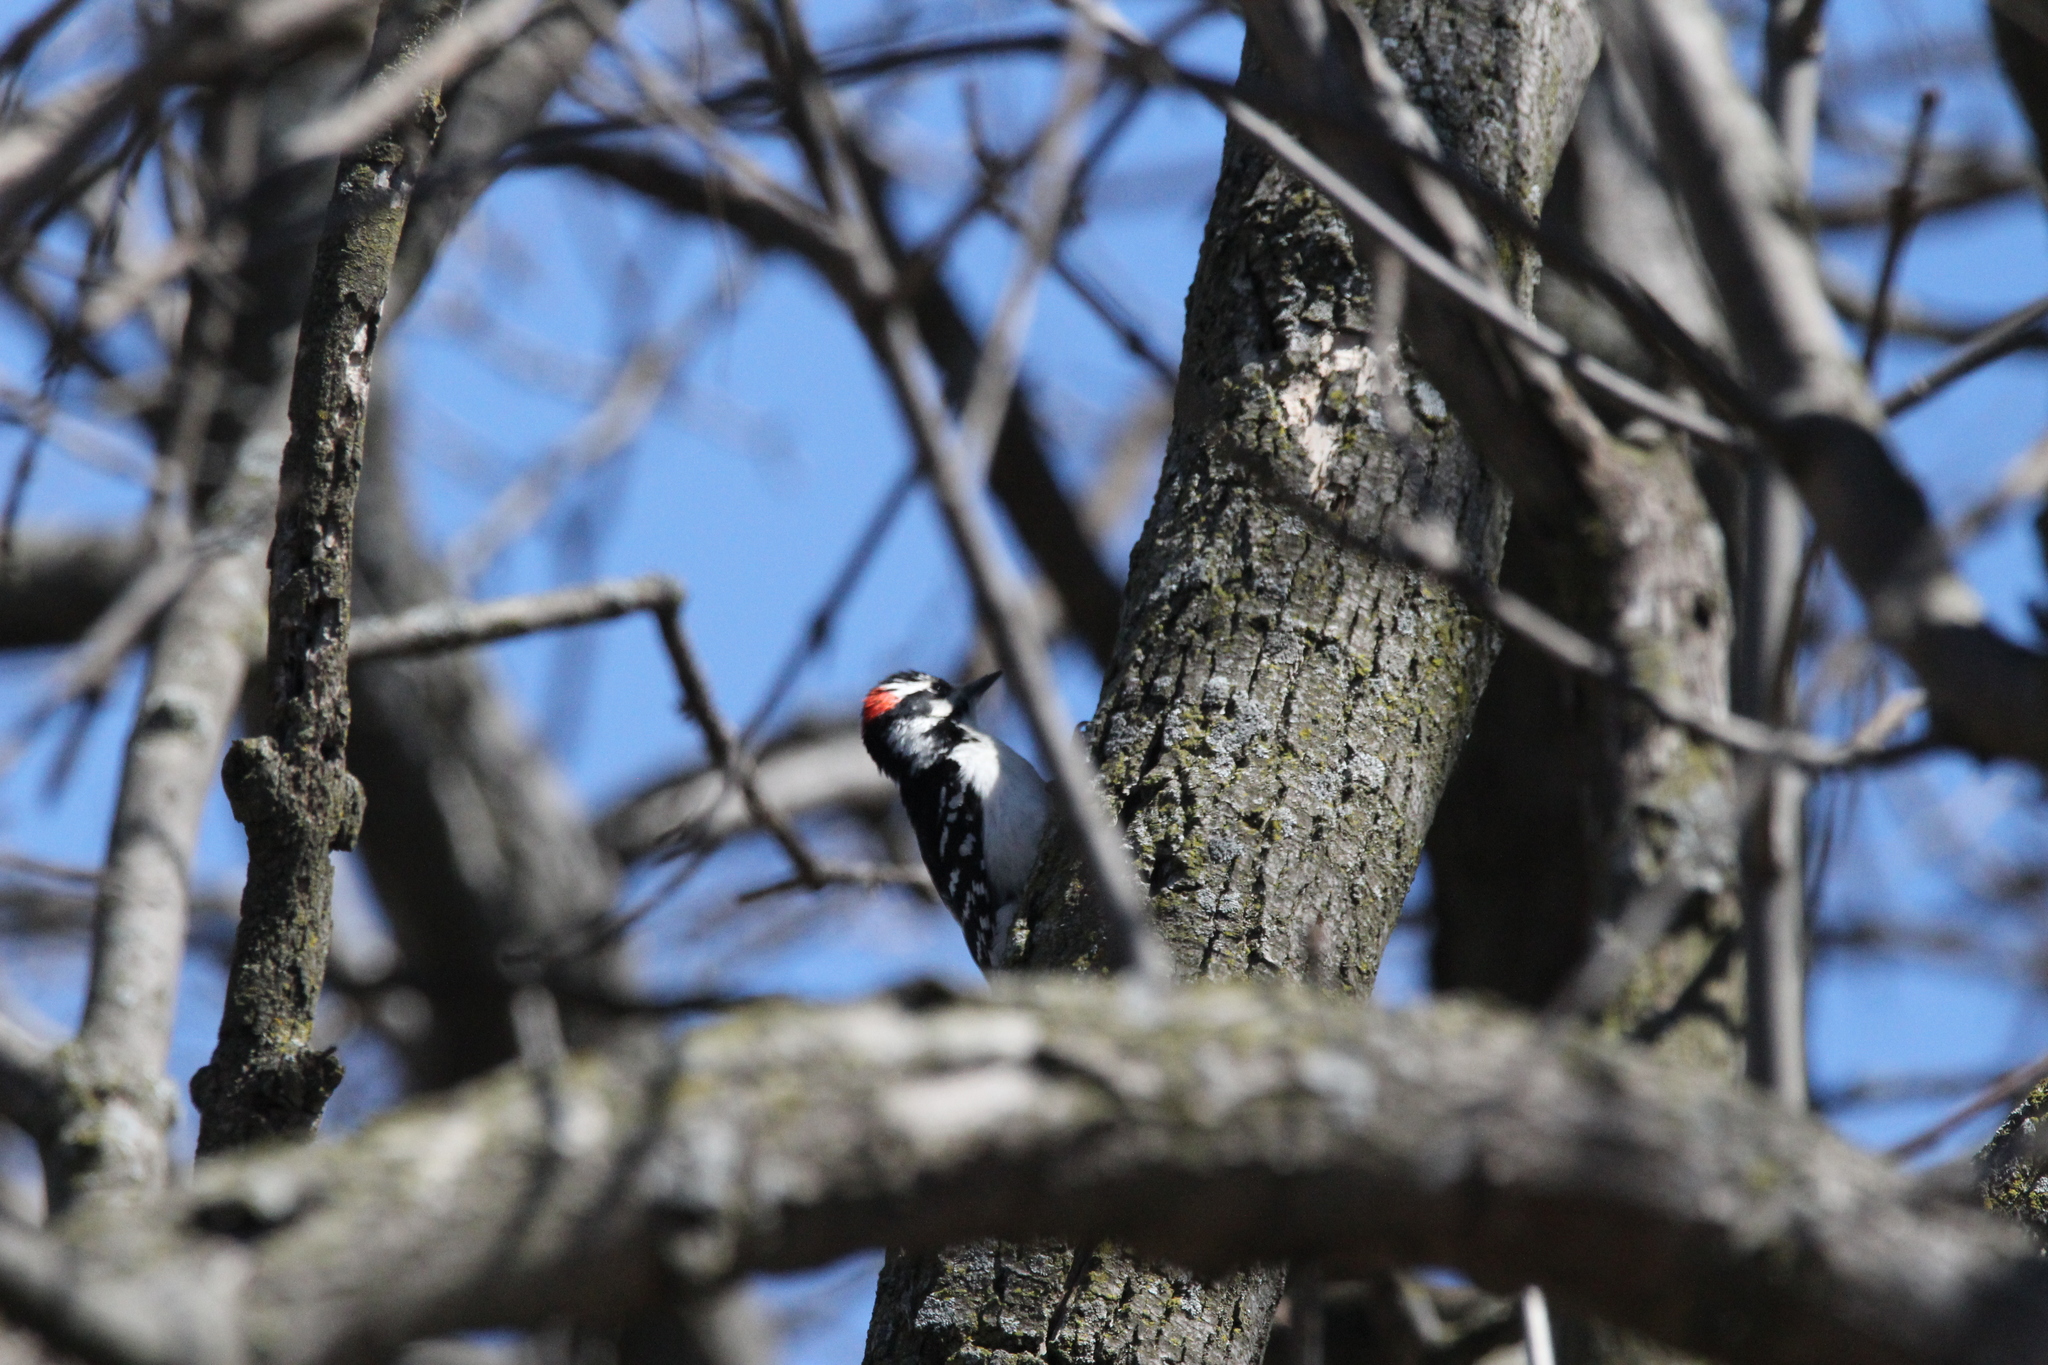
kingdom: Animalia
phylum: Chordata
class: Aves
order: Piciformes
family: Picidae
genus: Dryobates
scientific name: Dryobates pubescens
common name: Downy woodpecker
